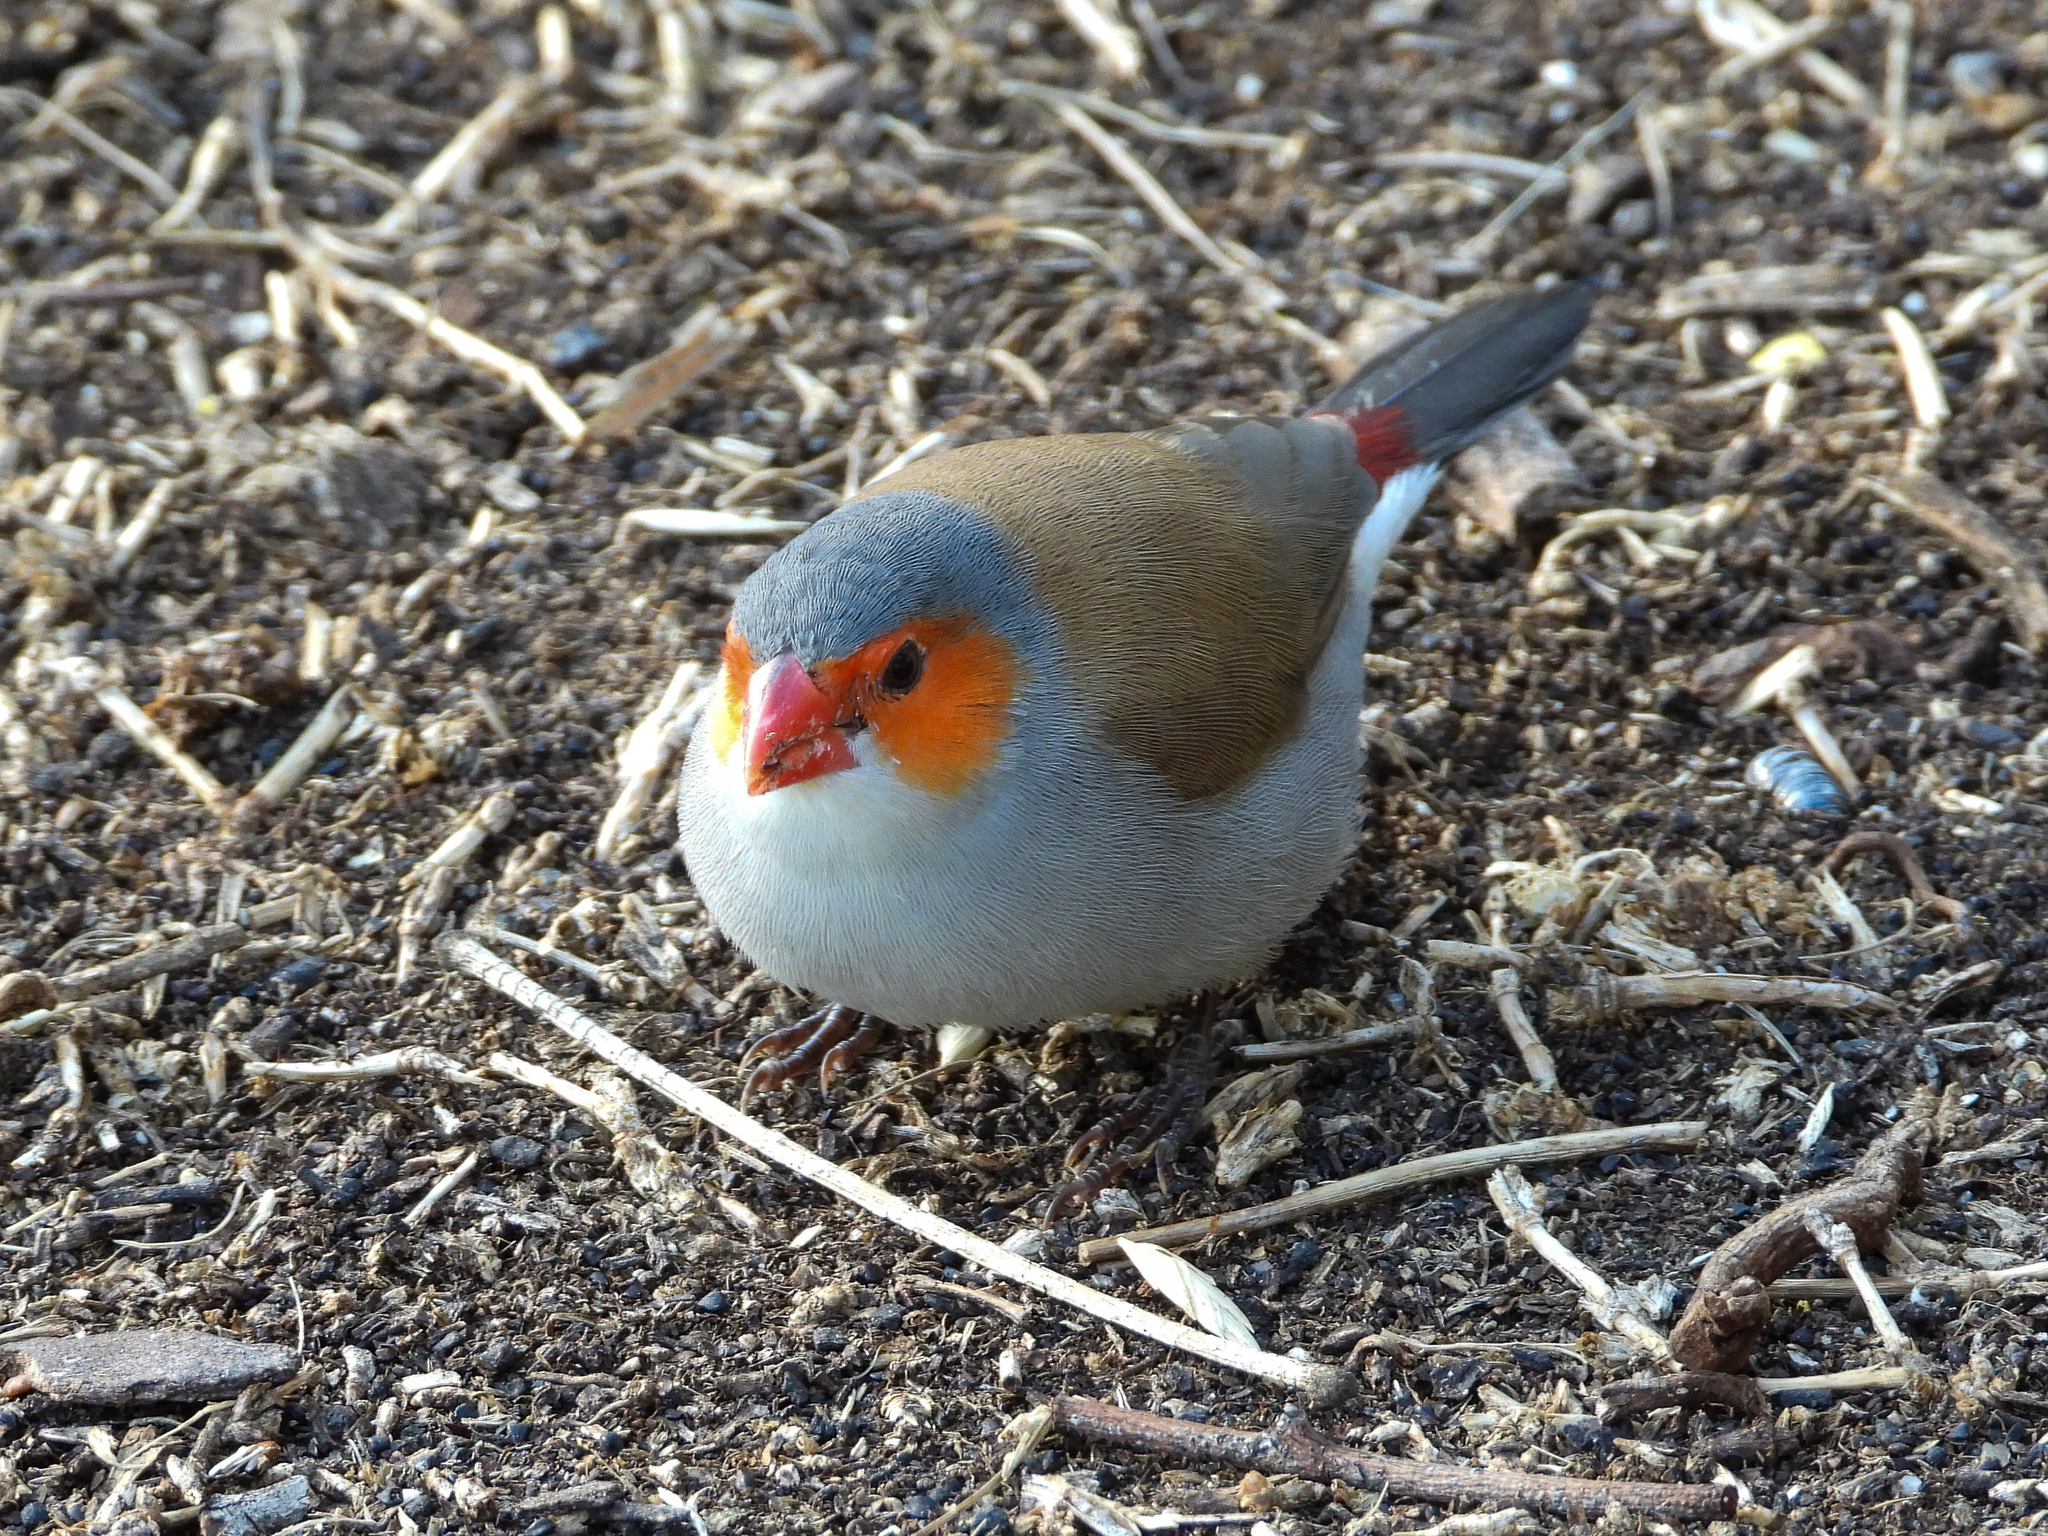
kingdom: Animalia
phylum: Chordata
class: Aves
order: Passeriformes
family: Estrildidae
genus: Estrilda
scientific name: Estrilda melpoda
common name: Orange-cheeked waxbill
